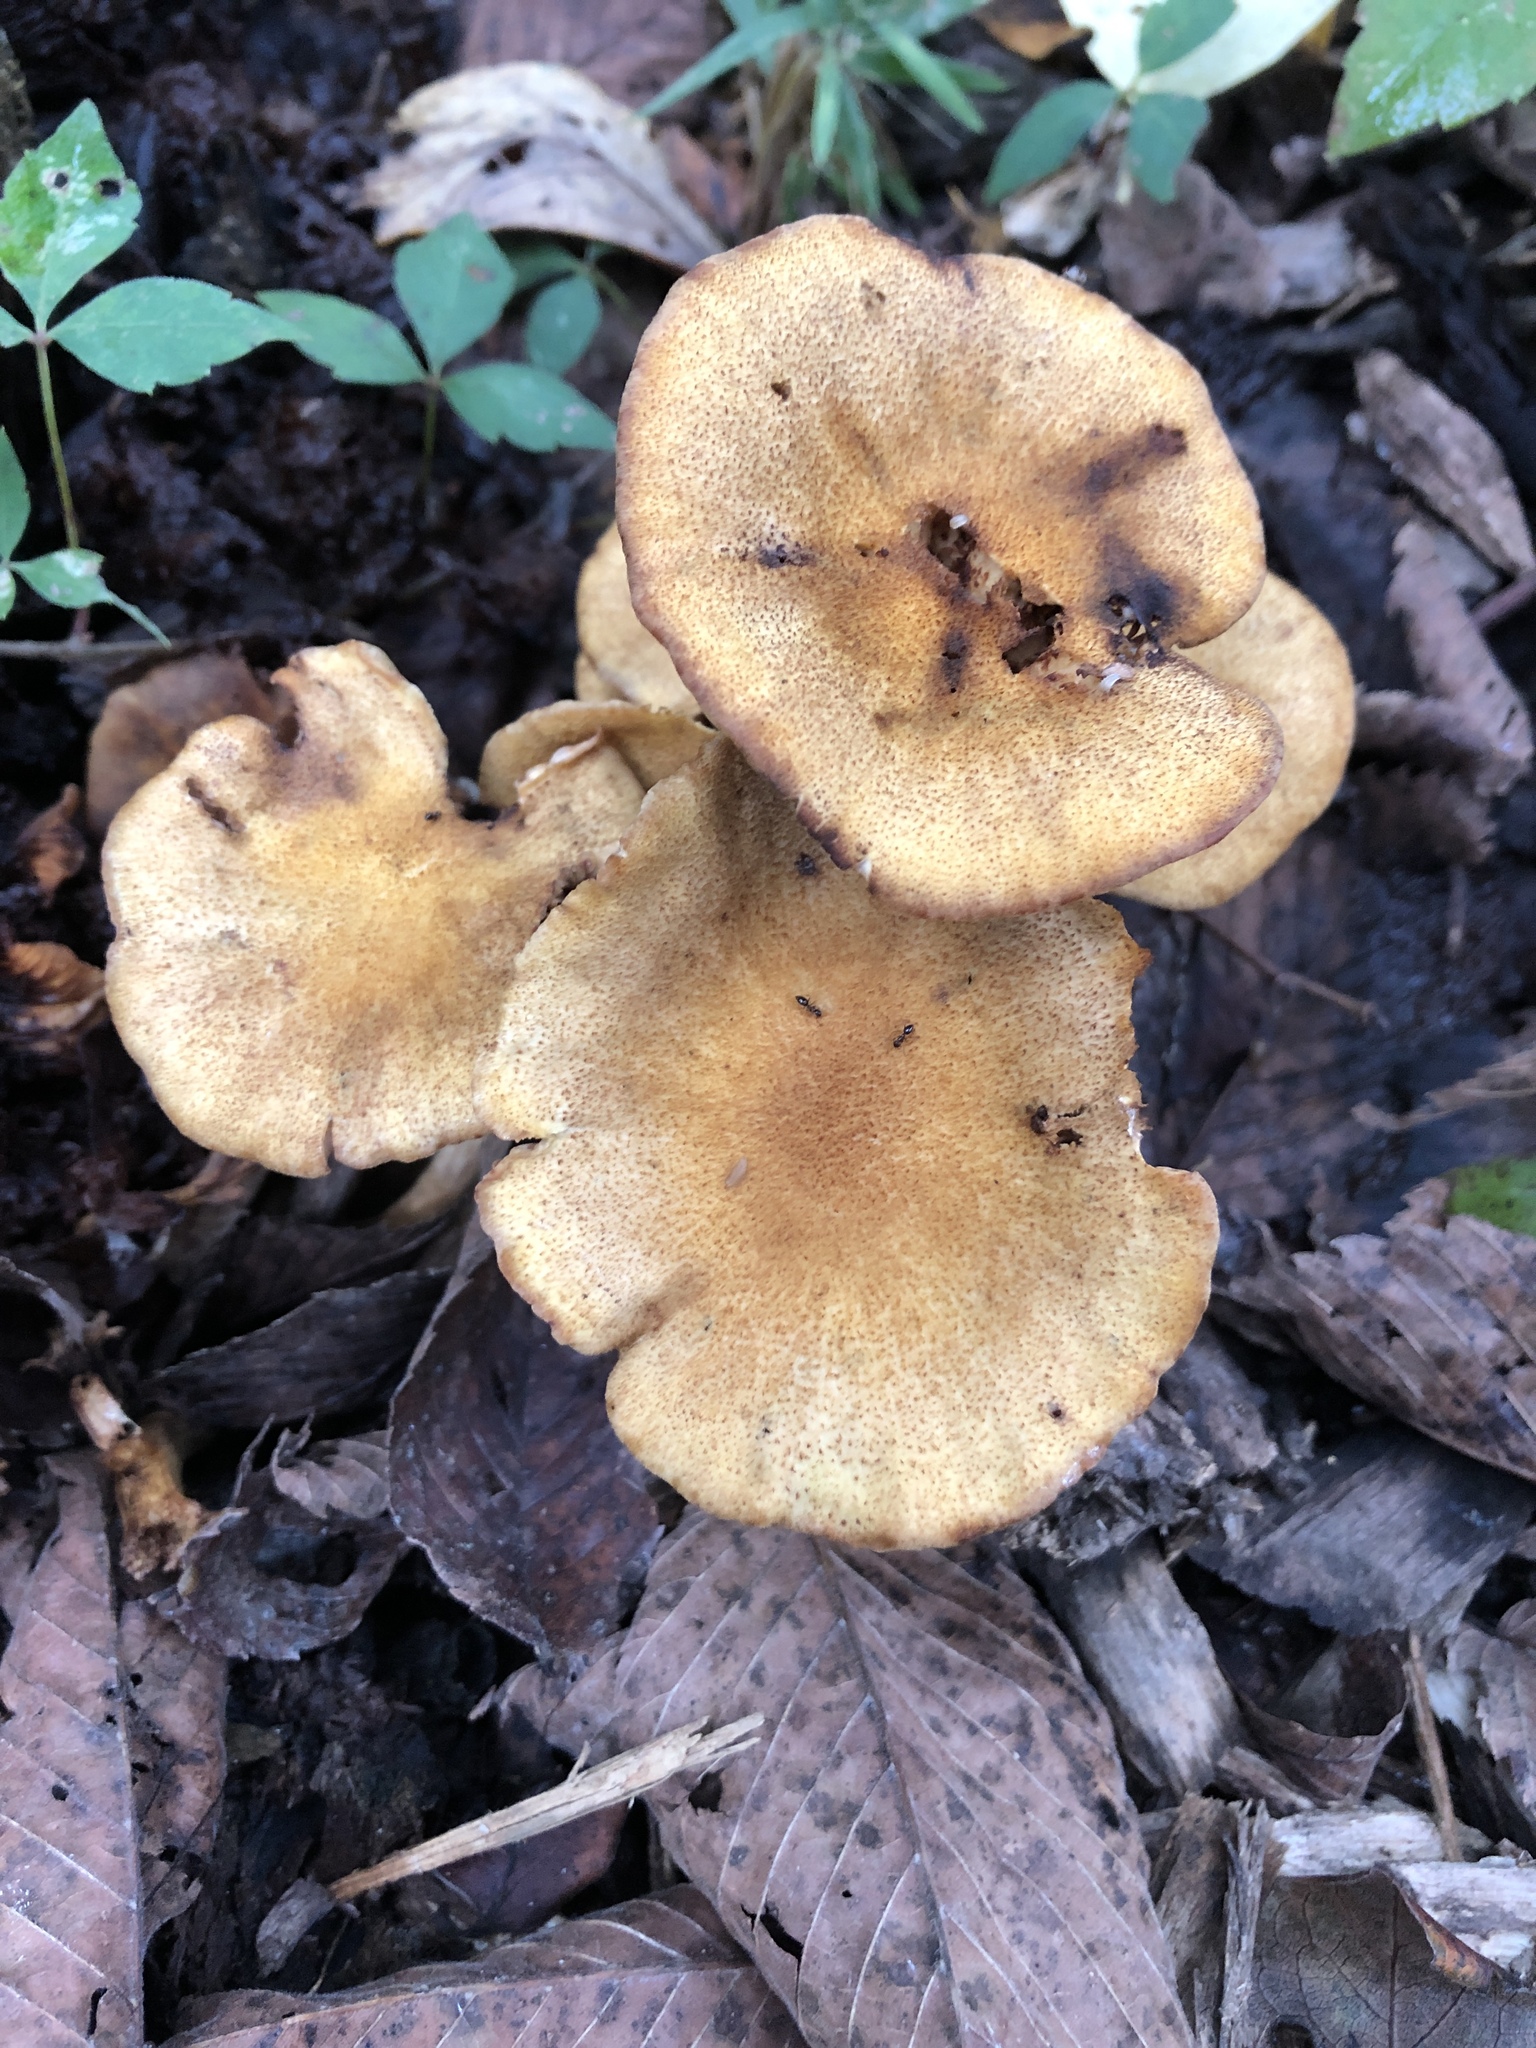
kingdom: Fungi
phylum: Basidiomycota
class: Agaricomycetes
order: Agaricales
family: Physalacriaceae
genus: Desarmillaria
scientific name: Desarmillaria caespitosa
